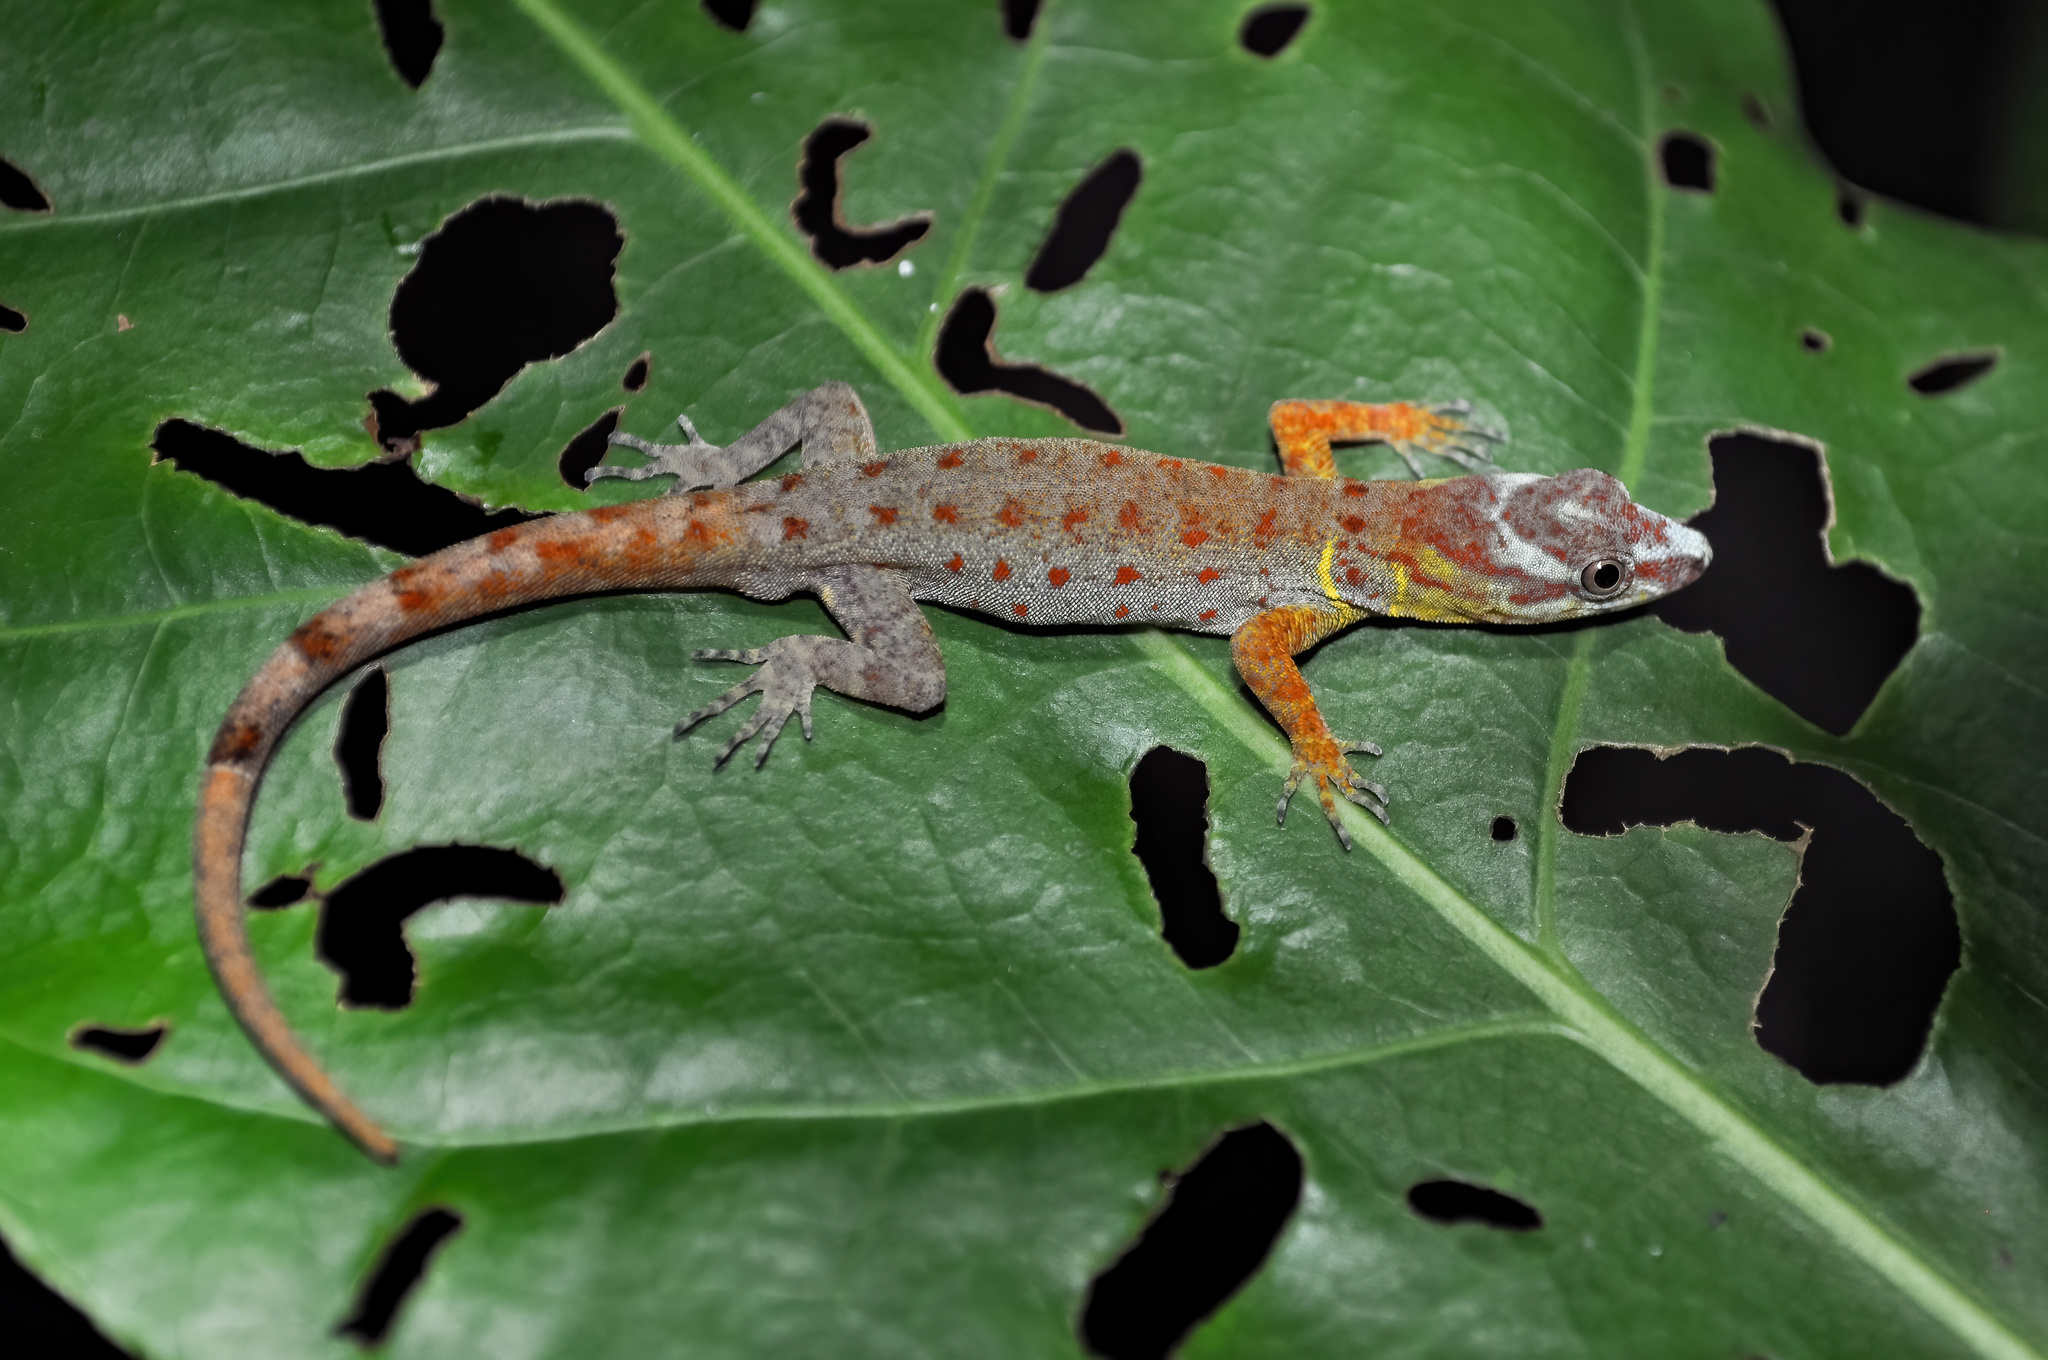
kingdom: Animalia
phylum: Chordata
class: Squamata
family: Sphaerodactylidae
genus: Gonatodes
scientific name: Gonatodes humeralis
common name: South american clawed gecko
